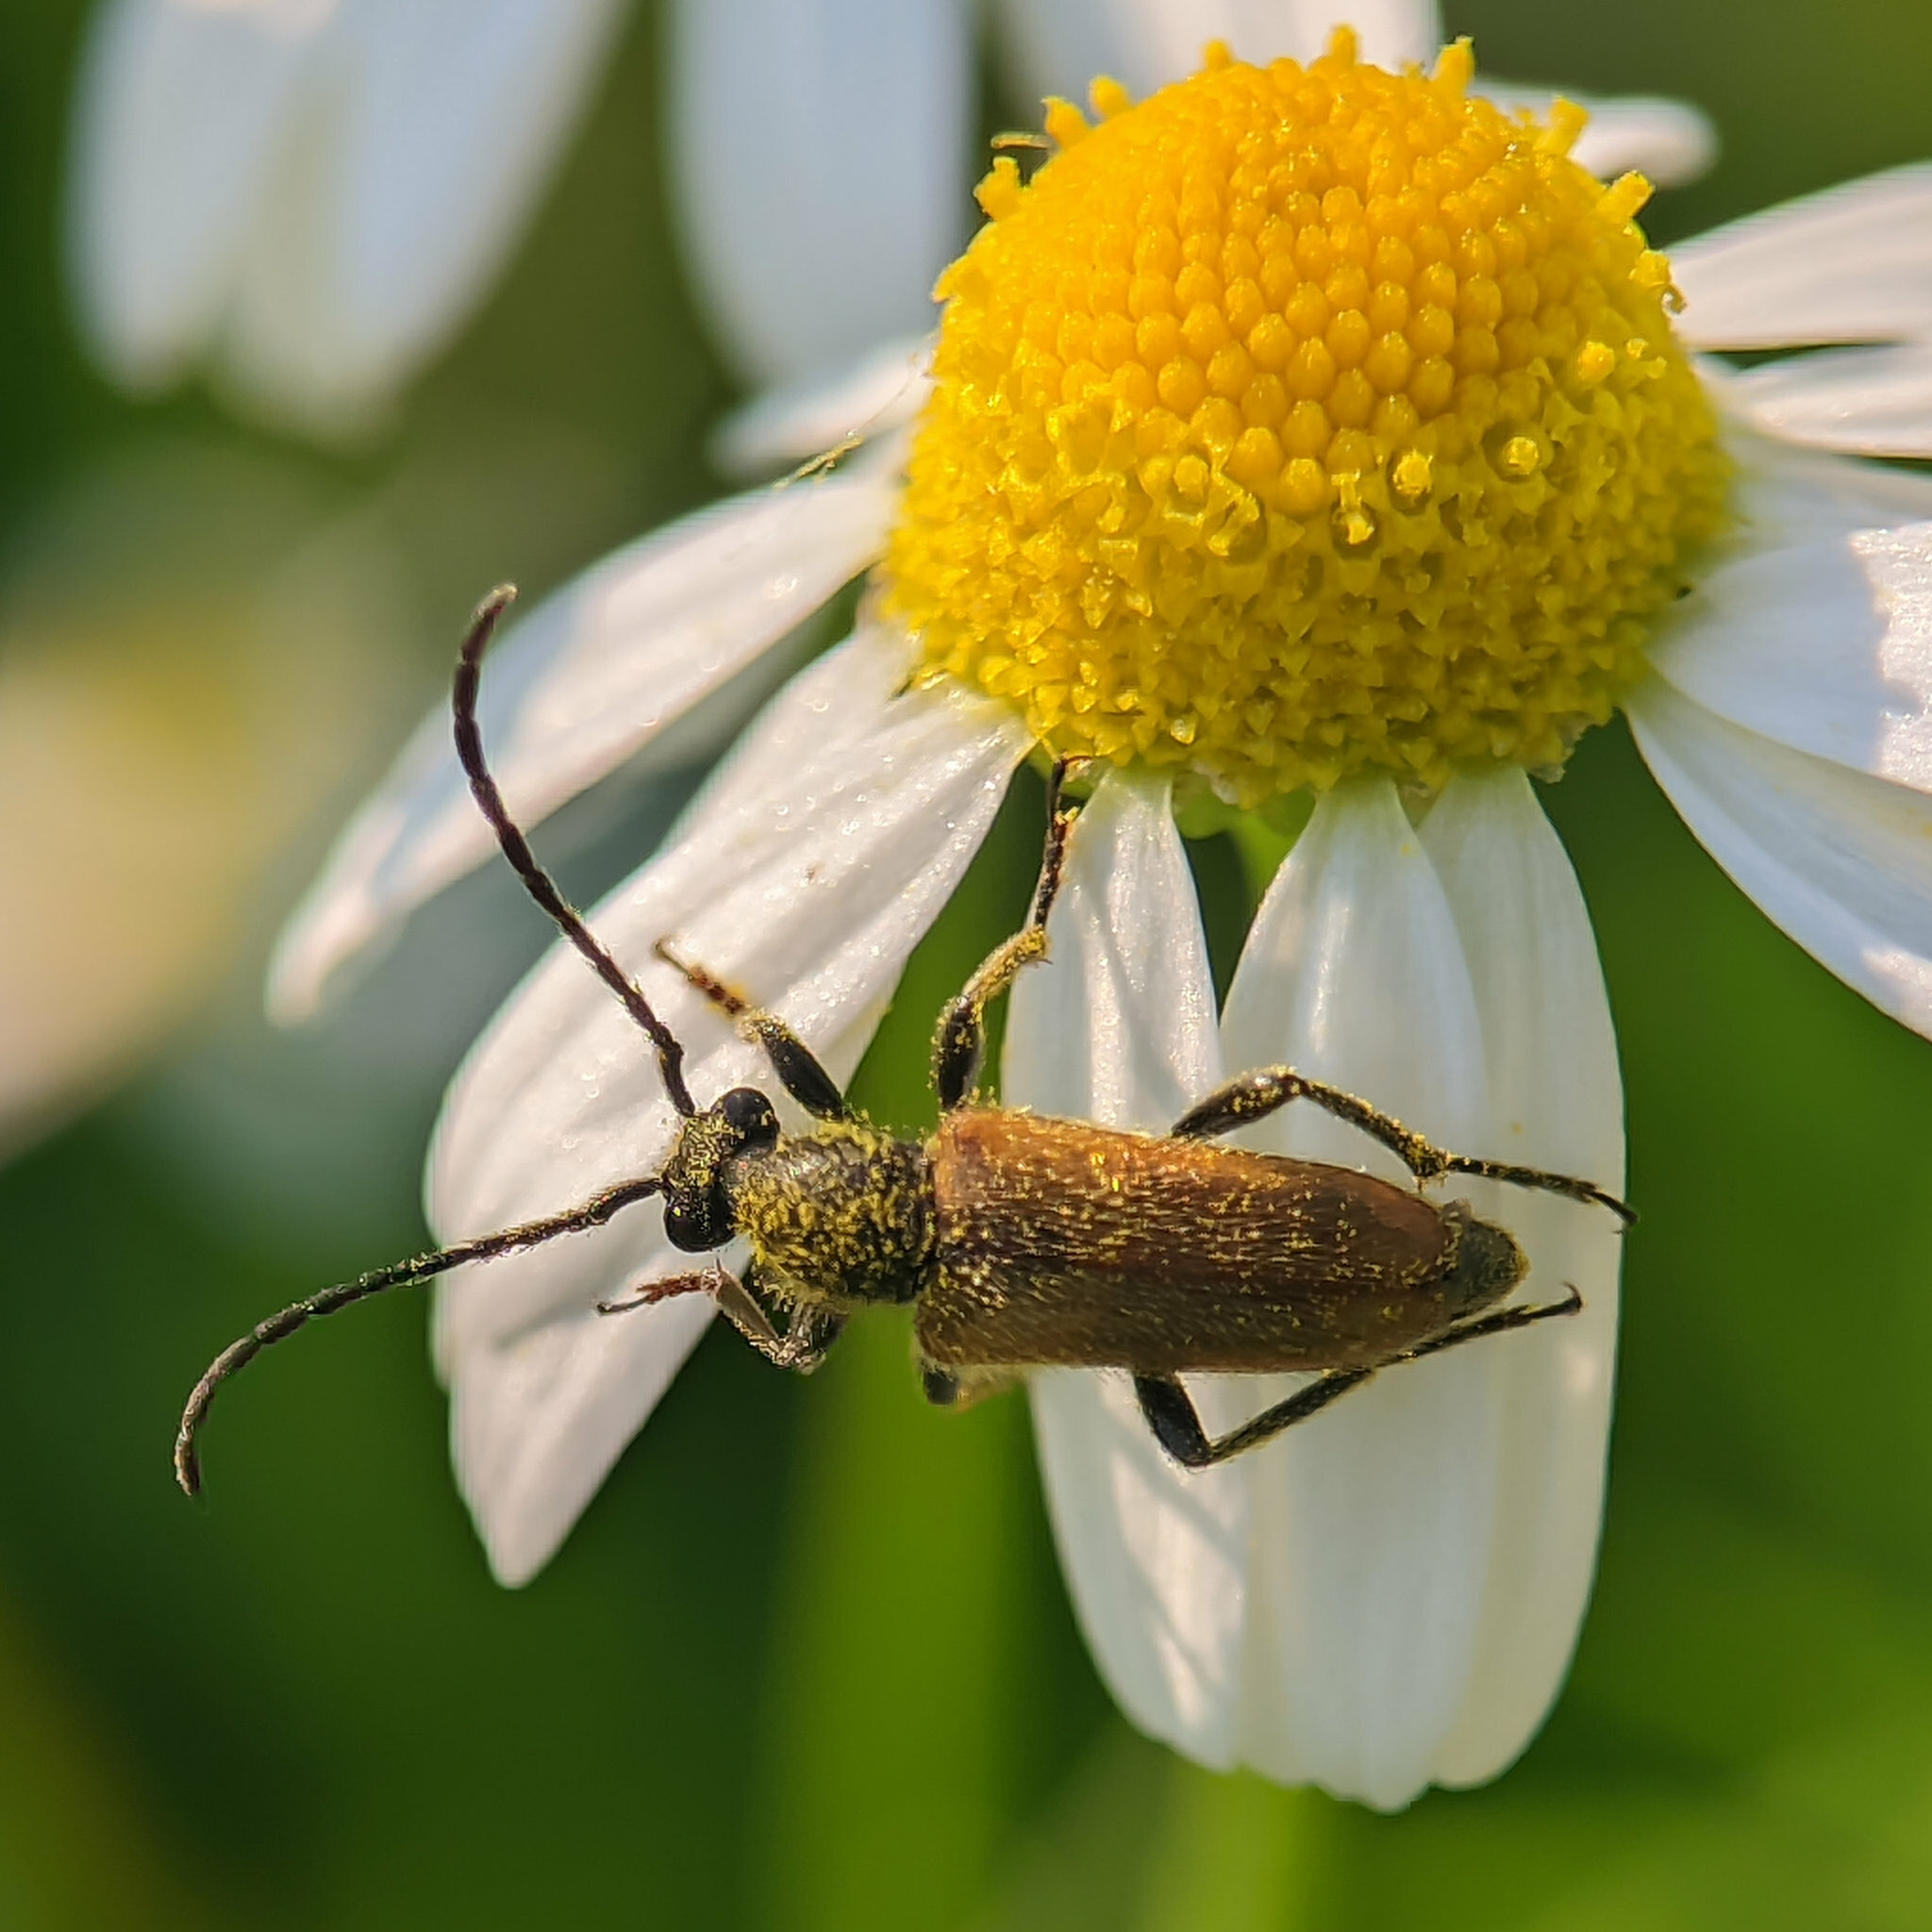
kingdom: Animalia
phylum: Arthropoda
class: Insecta
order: Coleoptera
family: Cerambycidae
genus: Pseudovadonia
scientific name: Pseudovadonia livida
